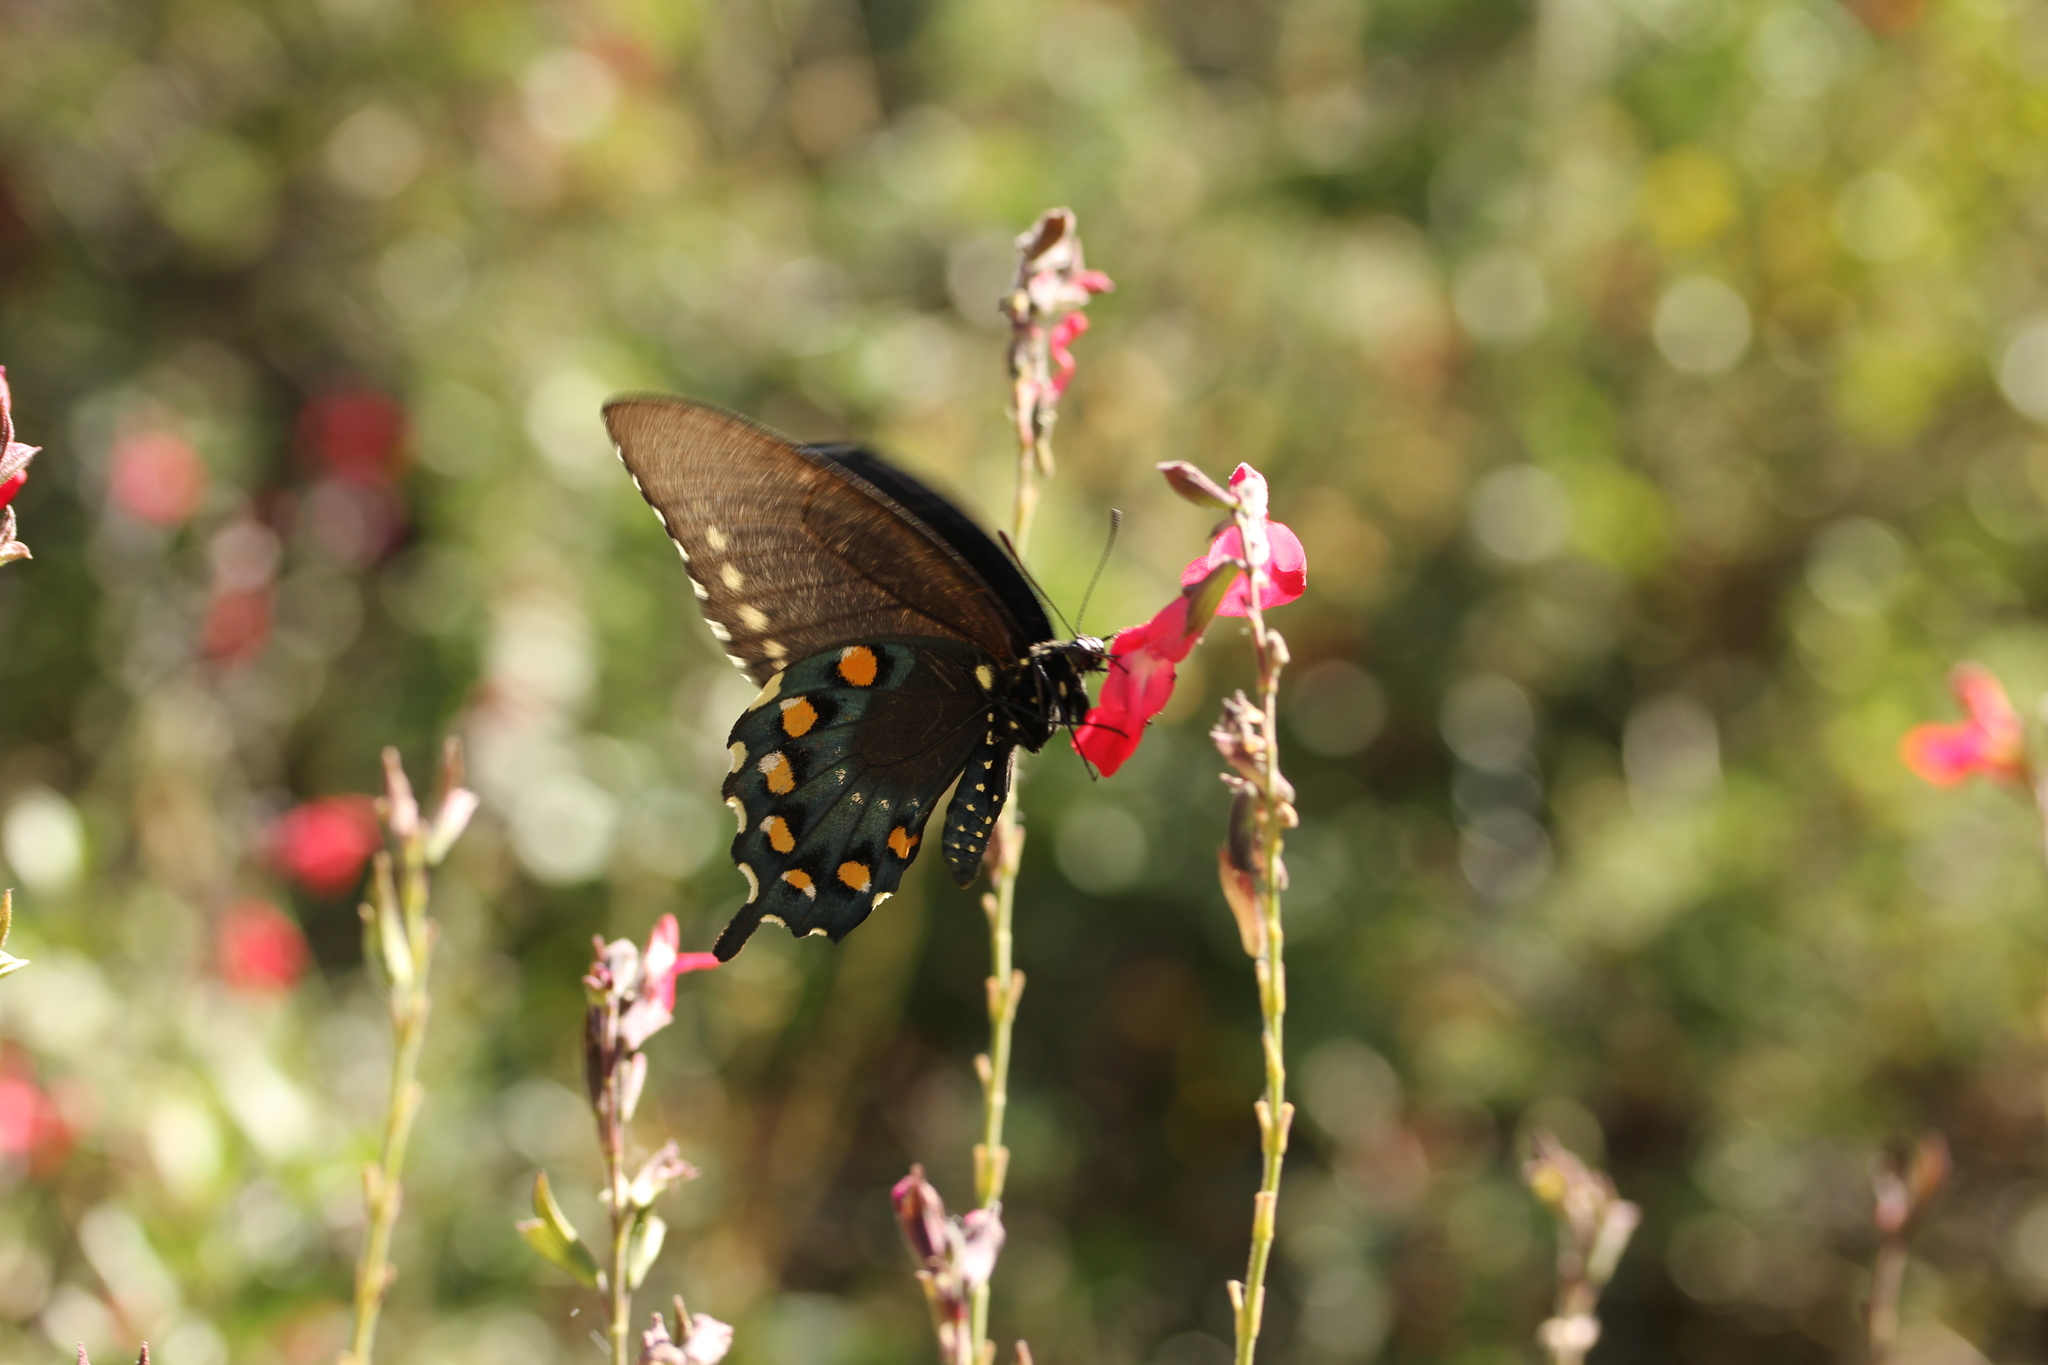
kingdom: Animalia
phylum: Arthropoda
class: Insecta
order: Lepidoptera
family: Papilionidae
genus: Battus
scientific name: Battus philenor
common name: Pipevine swallowtail
